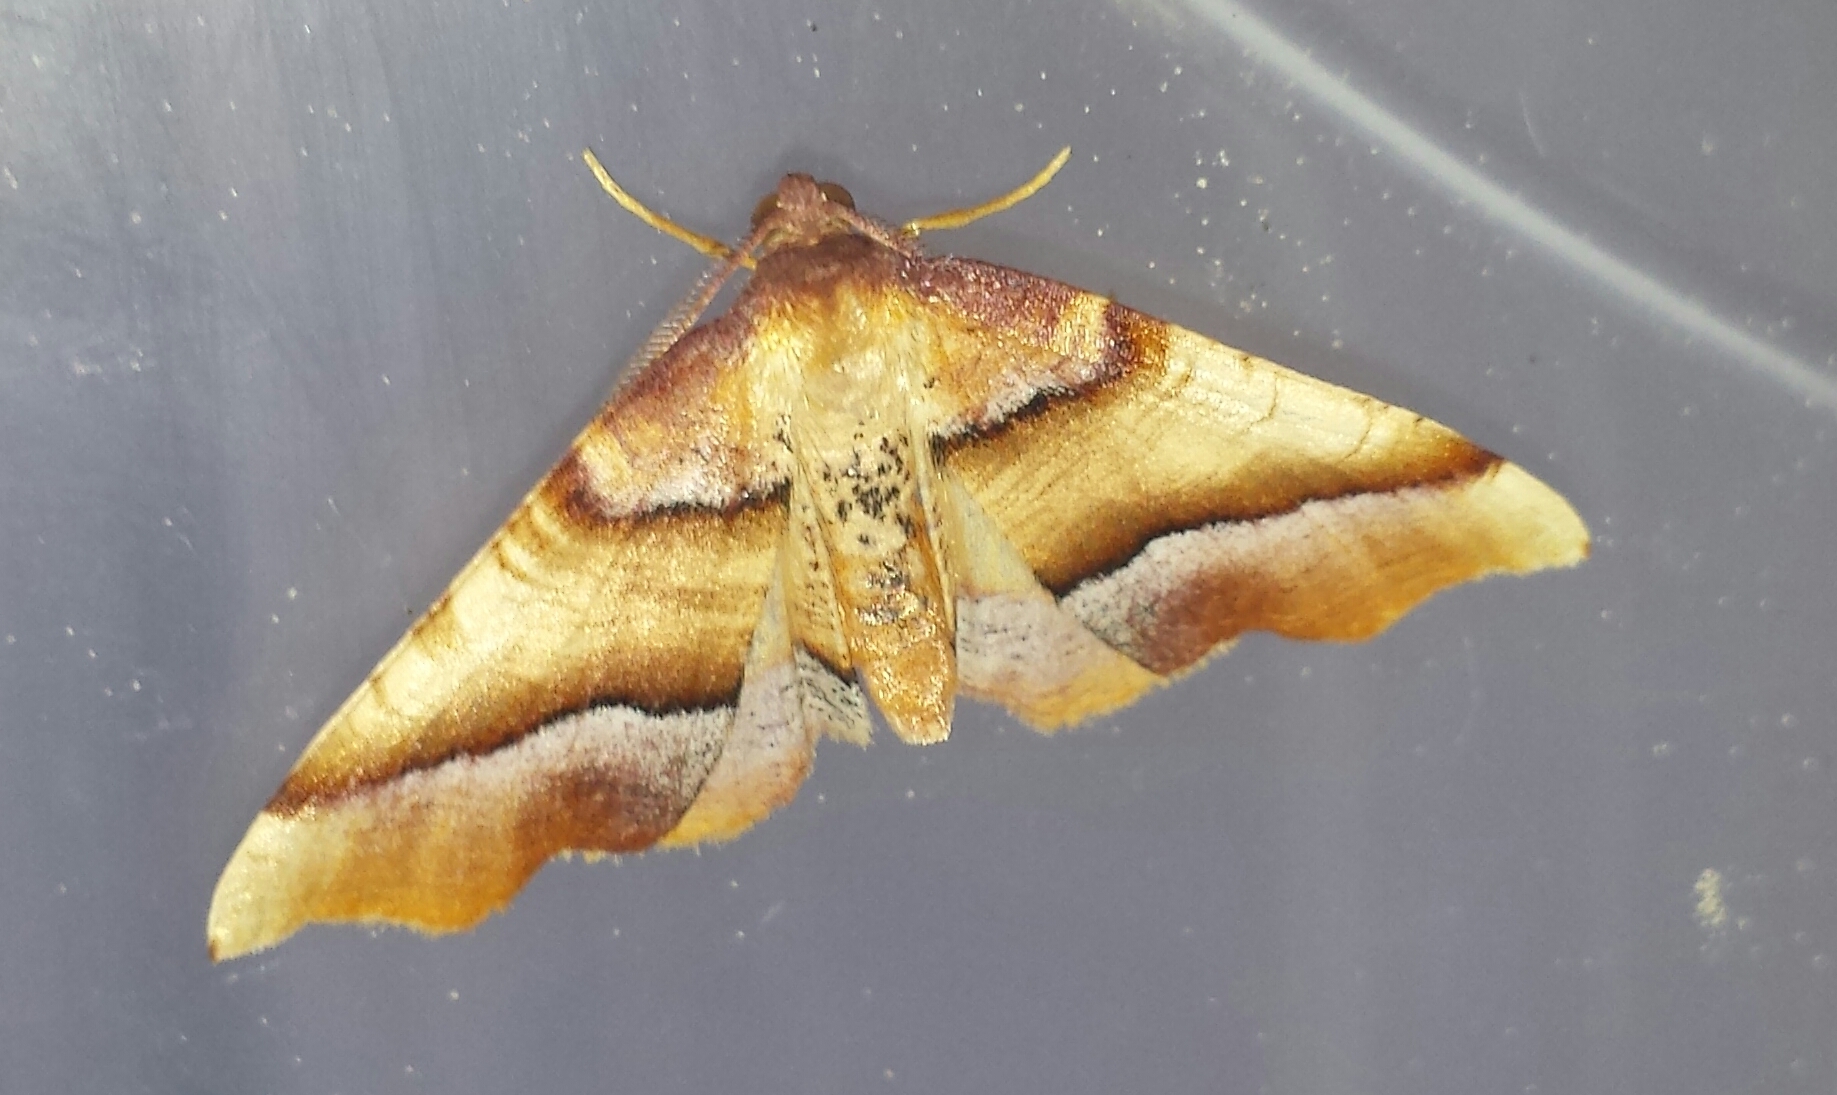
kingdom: Animalia
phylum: Arthropoda
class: Insecta
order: Lepidoptera
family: Geometridae
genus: Plagodis
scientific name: Plagodis phlogosaria
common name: Straight-lined plagodis
